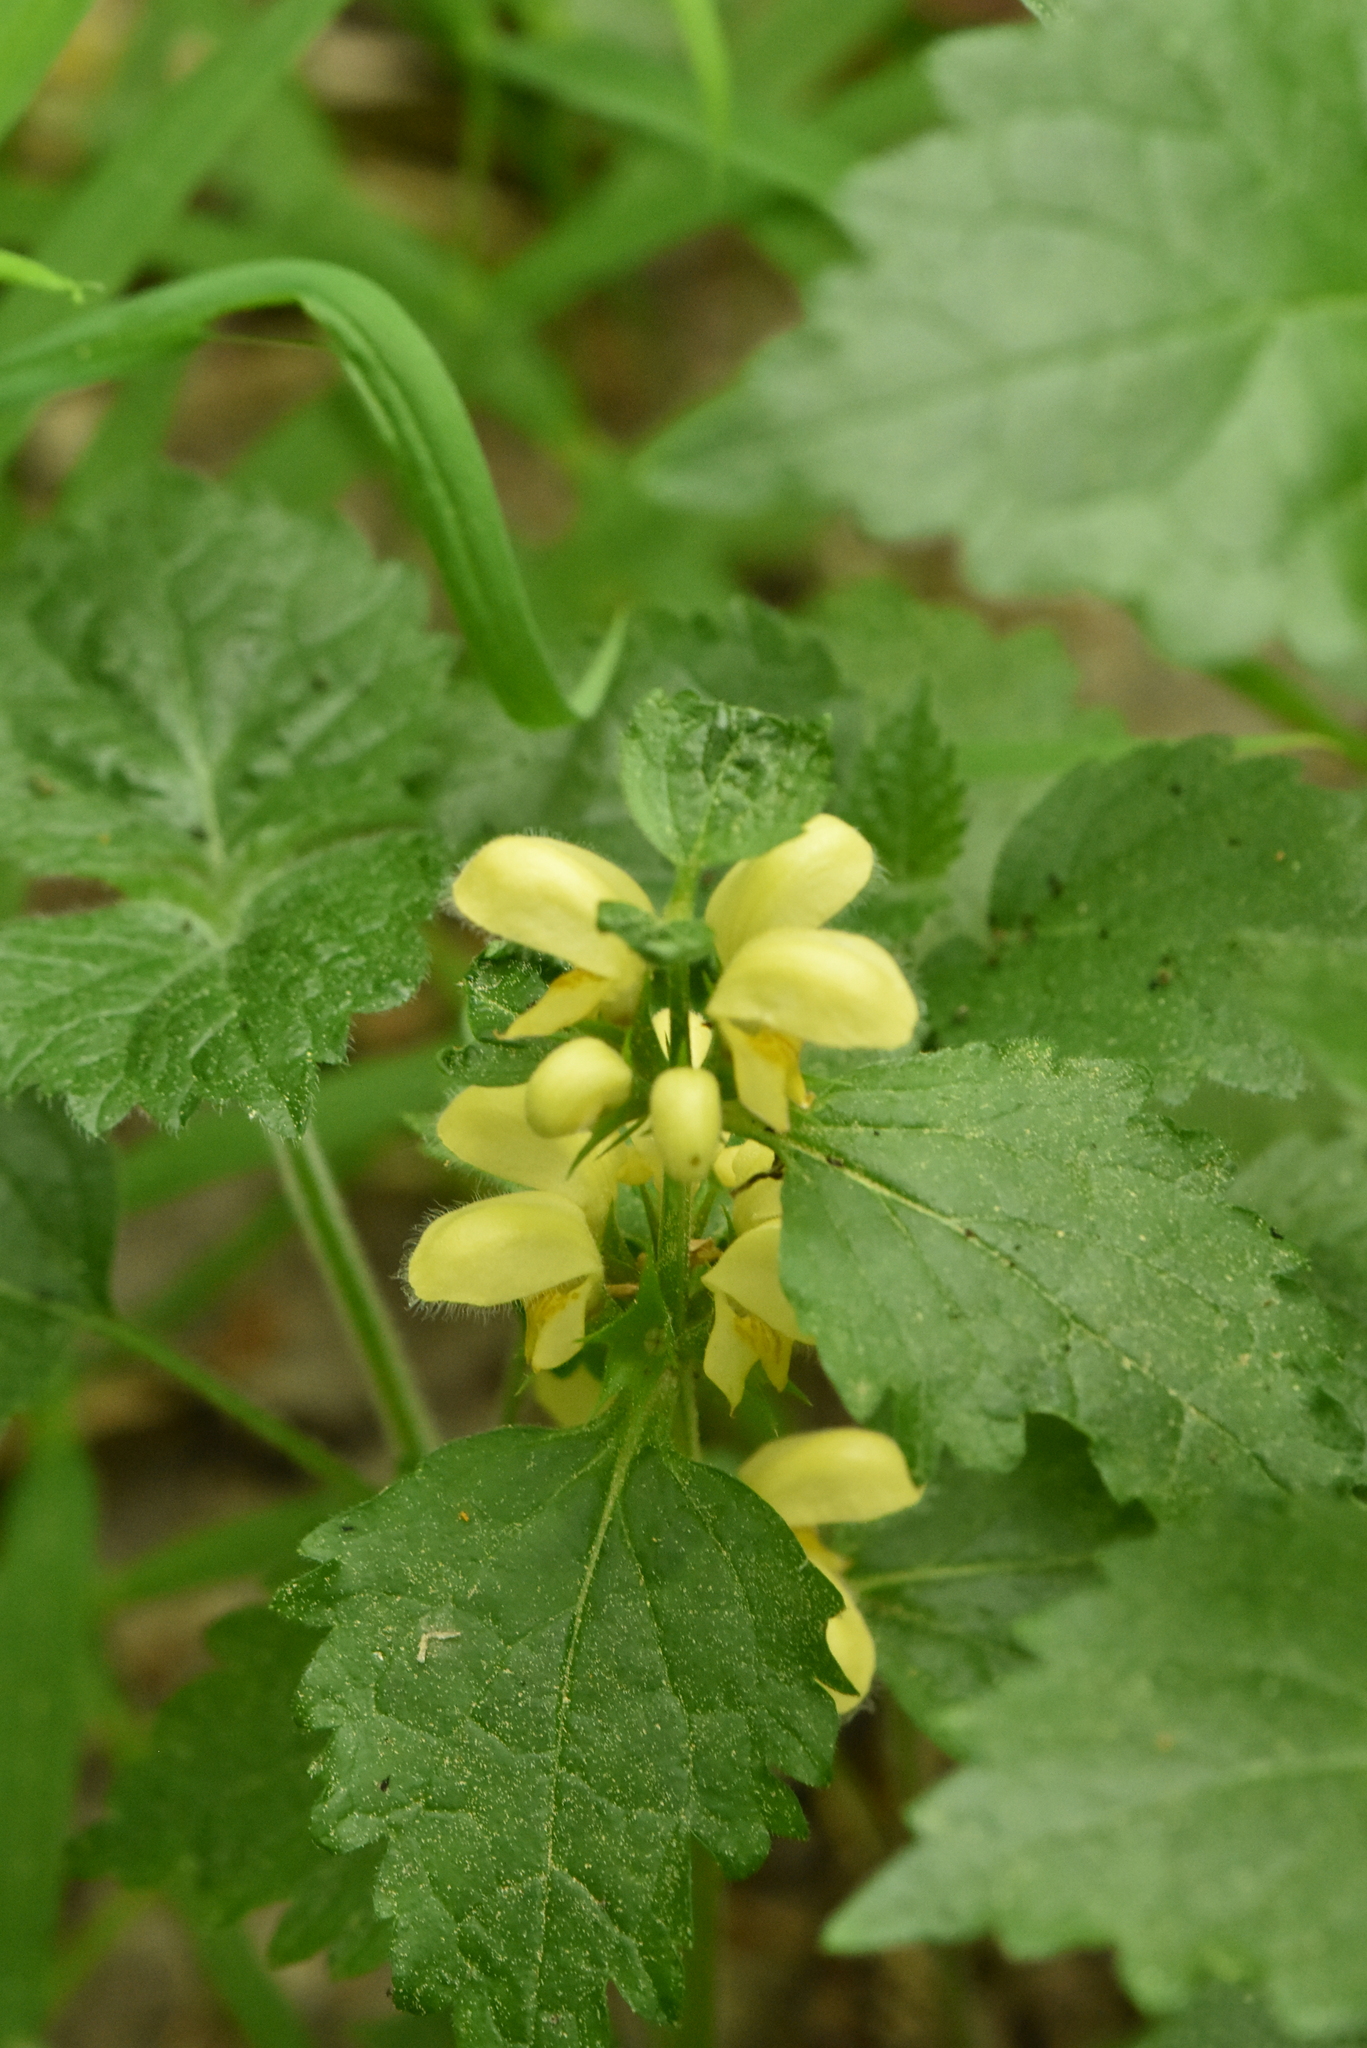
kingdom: Plantae
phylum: Tracheophyta
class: Magnoliopsida
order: Lamiales
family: Lamiaceae
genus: Lamium
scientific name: Lamium galeobdolon
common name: Yellow archangel
